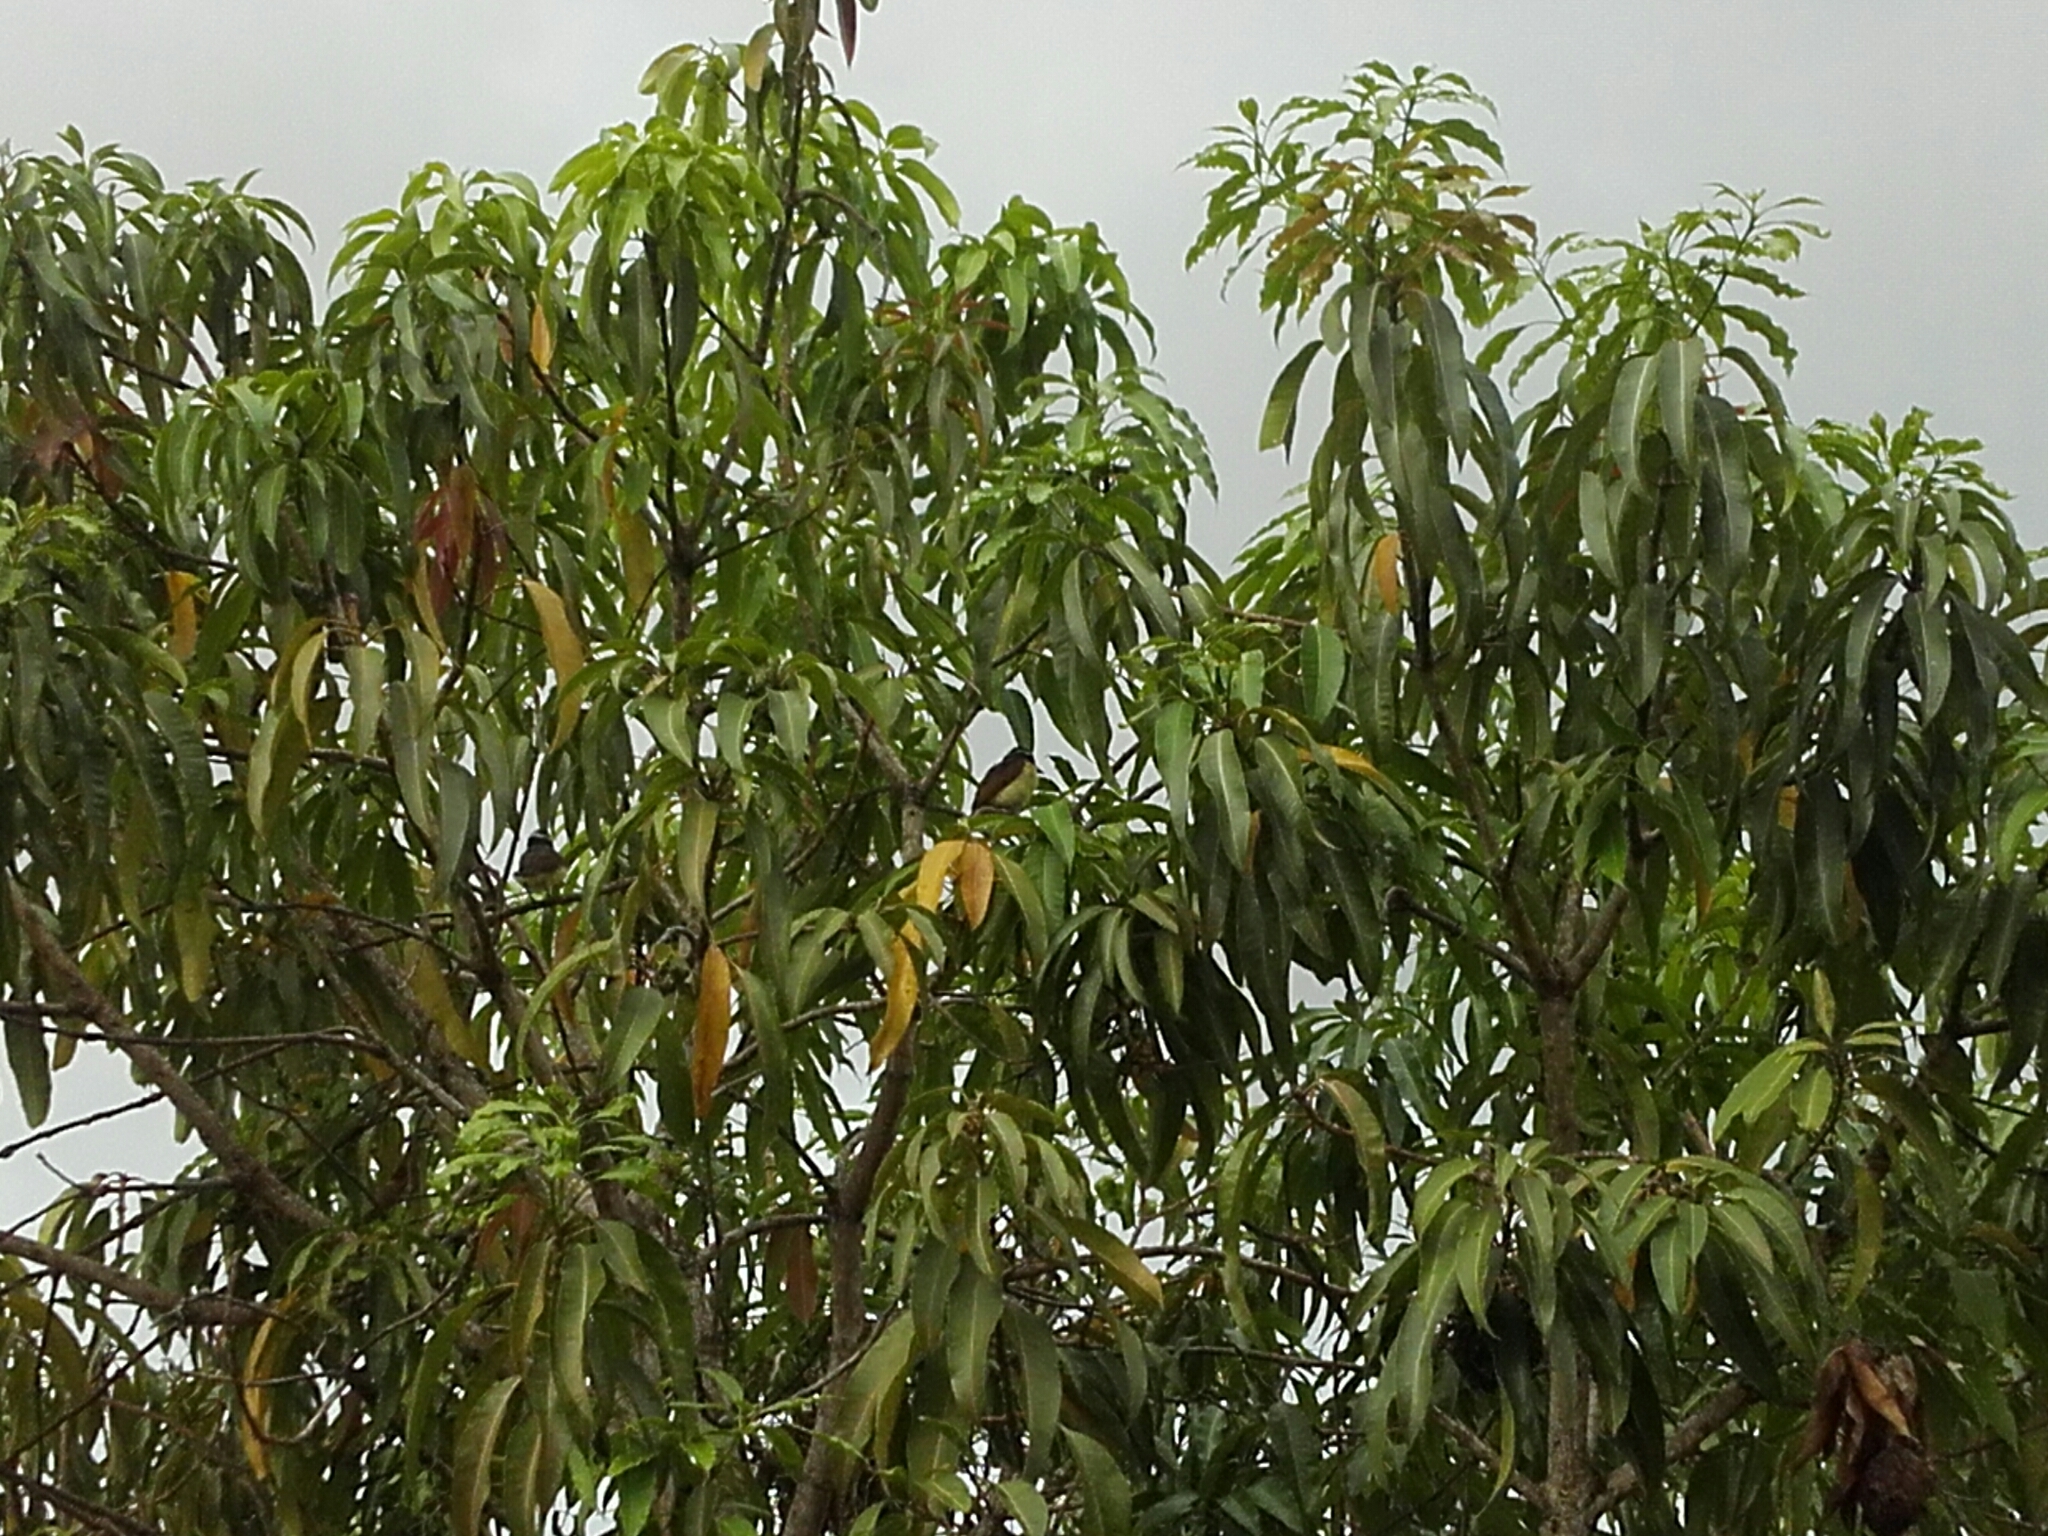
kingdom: Animalia
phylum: Chordata
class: Aves
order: Passeriformes
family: Tyrannidae
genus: Pitangus
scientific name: Pitangus sulphuratus
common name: Great kiskadee
